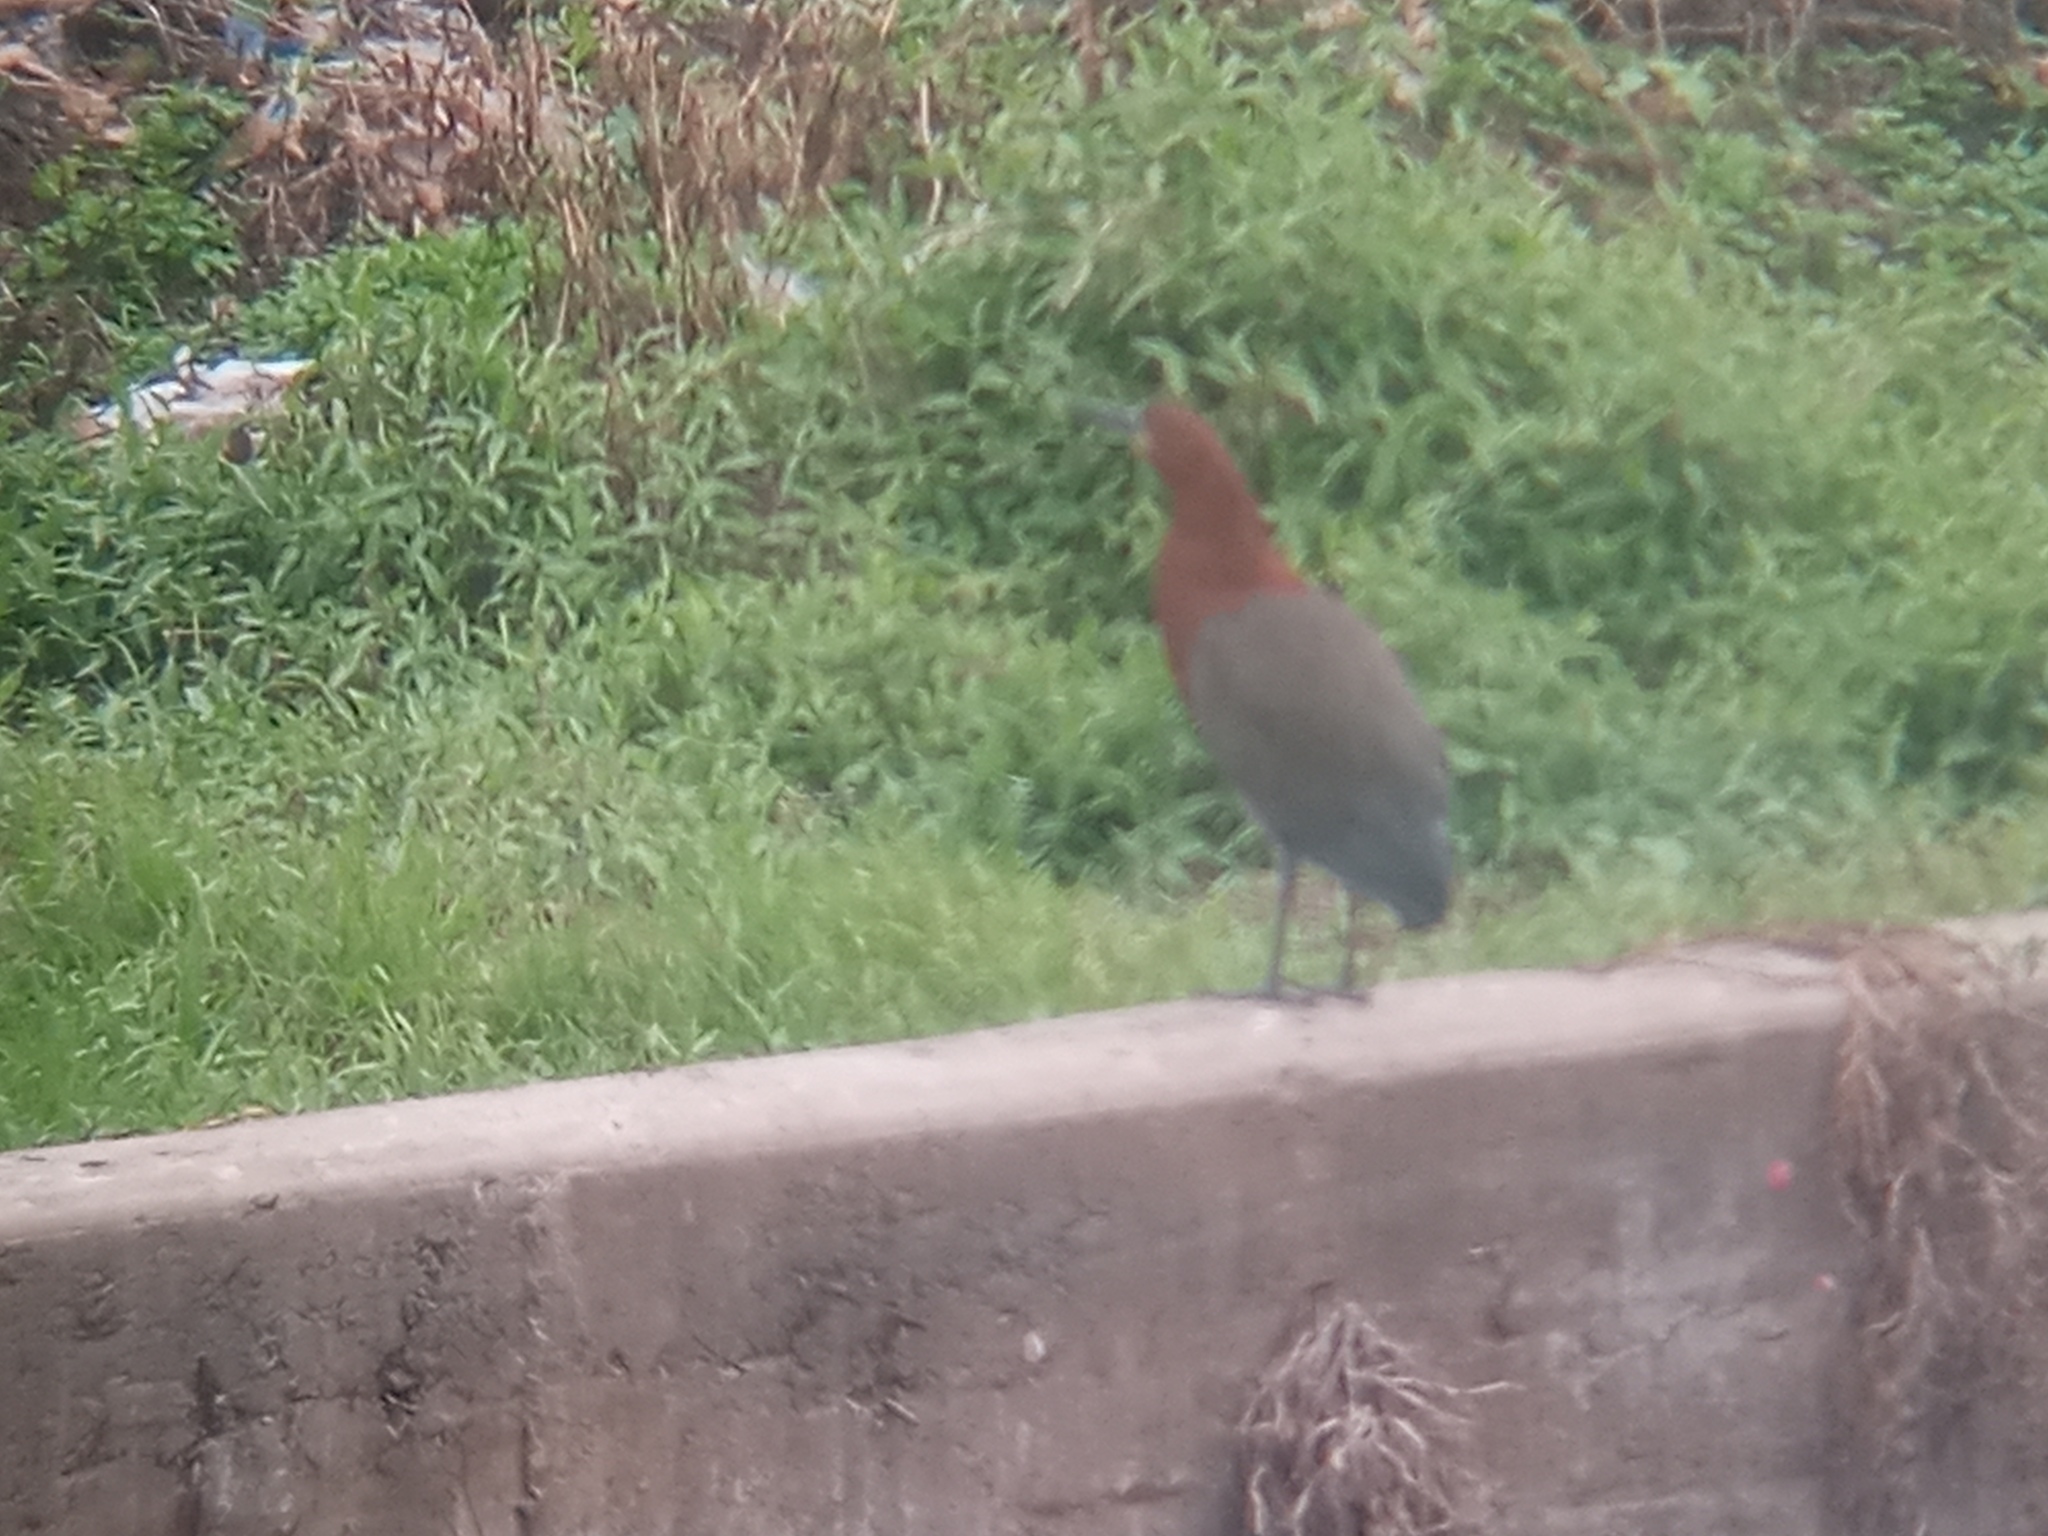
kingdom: Animalia
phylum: Chordata
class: Aves
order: Pelecaniformes
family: Ardeidae
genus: Tigrisoma
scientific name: Tigrisoma lineatum
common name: Rufescent tiger-heron
